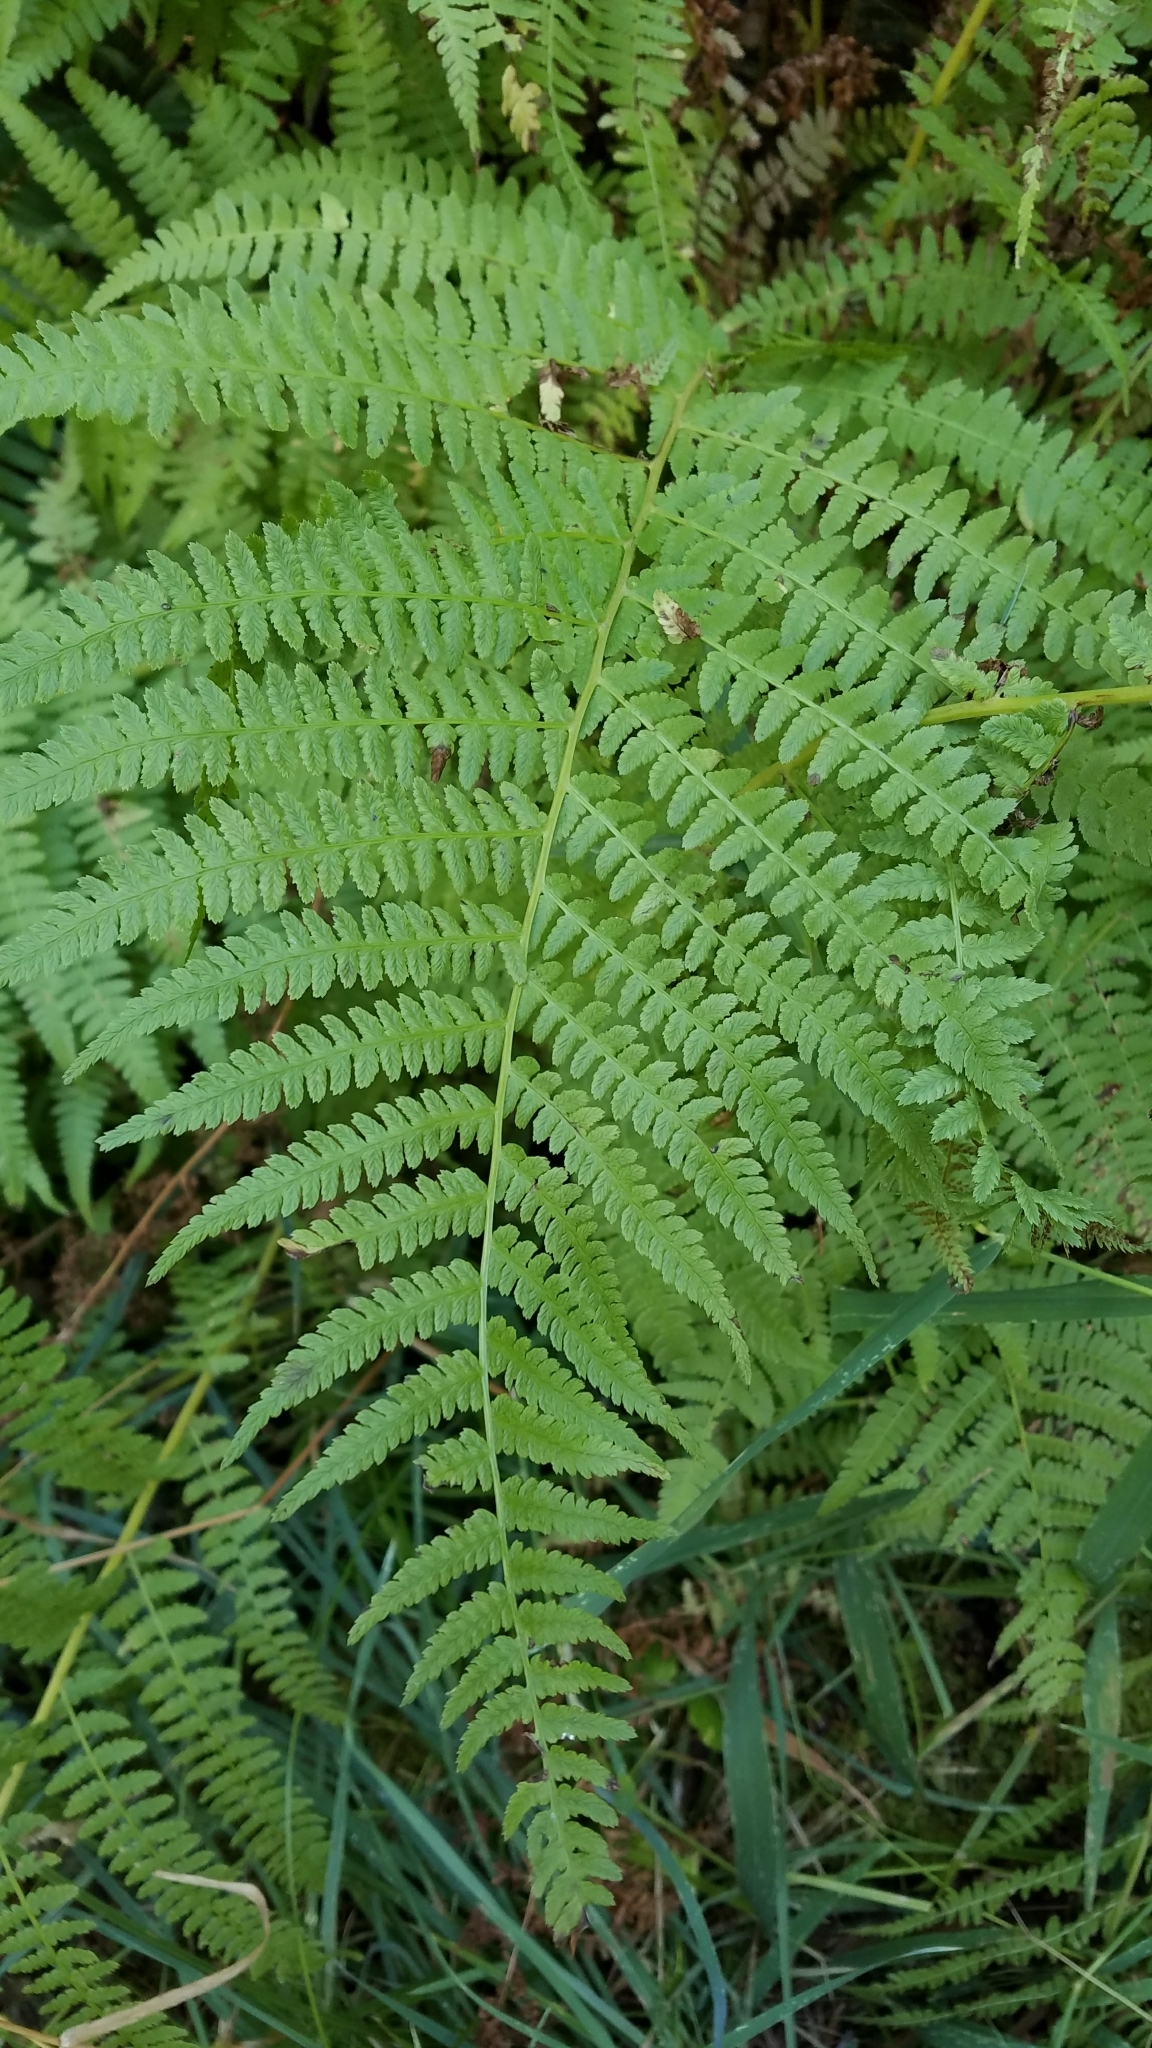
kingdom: Plantae
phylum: Tracheophyta
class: Polypodiopsida
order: Polypodiales
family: Athyriaceae
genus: Athyrium
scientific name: Athyrium filix-femina
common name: Lady fern
